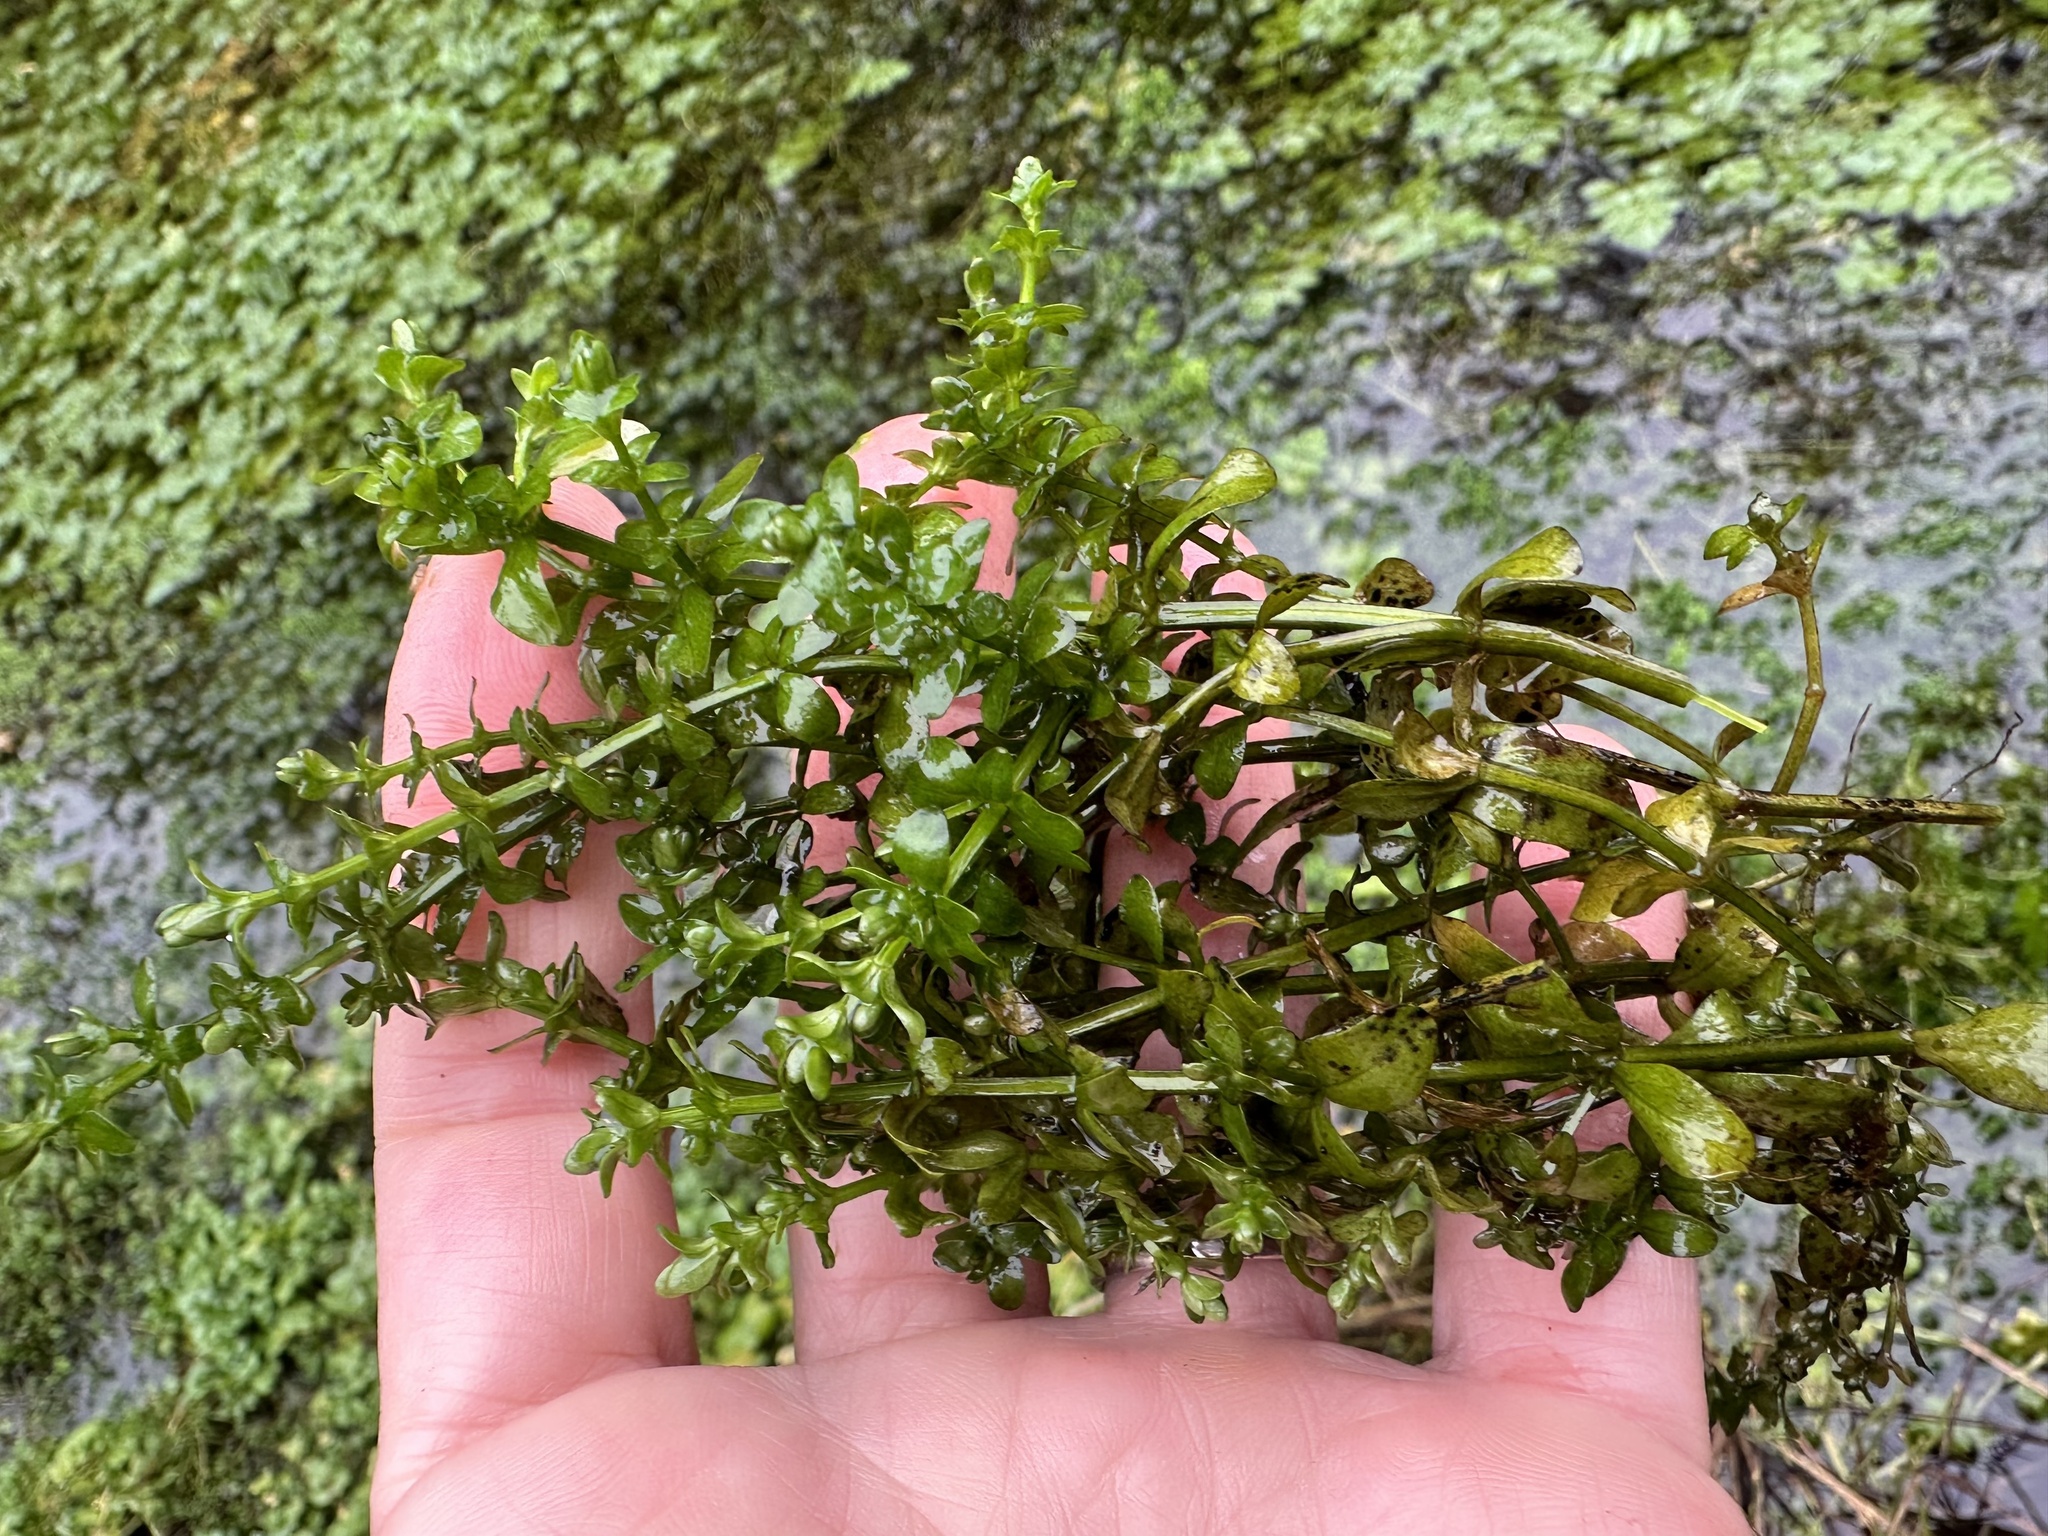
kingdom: Plantae
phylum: Tracheophyta
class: Liliopsida
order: Alismatales
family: Hydrocharitaceae
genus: Elodea
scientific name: Elodea canadensis
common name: Canadian waterweed
